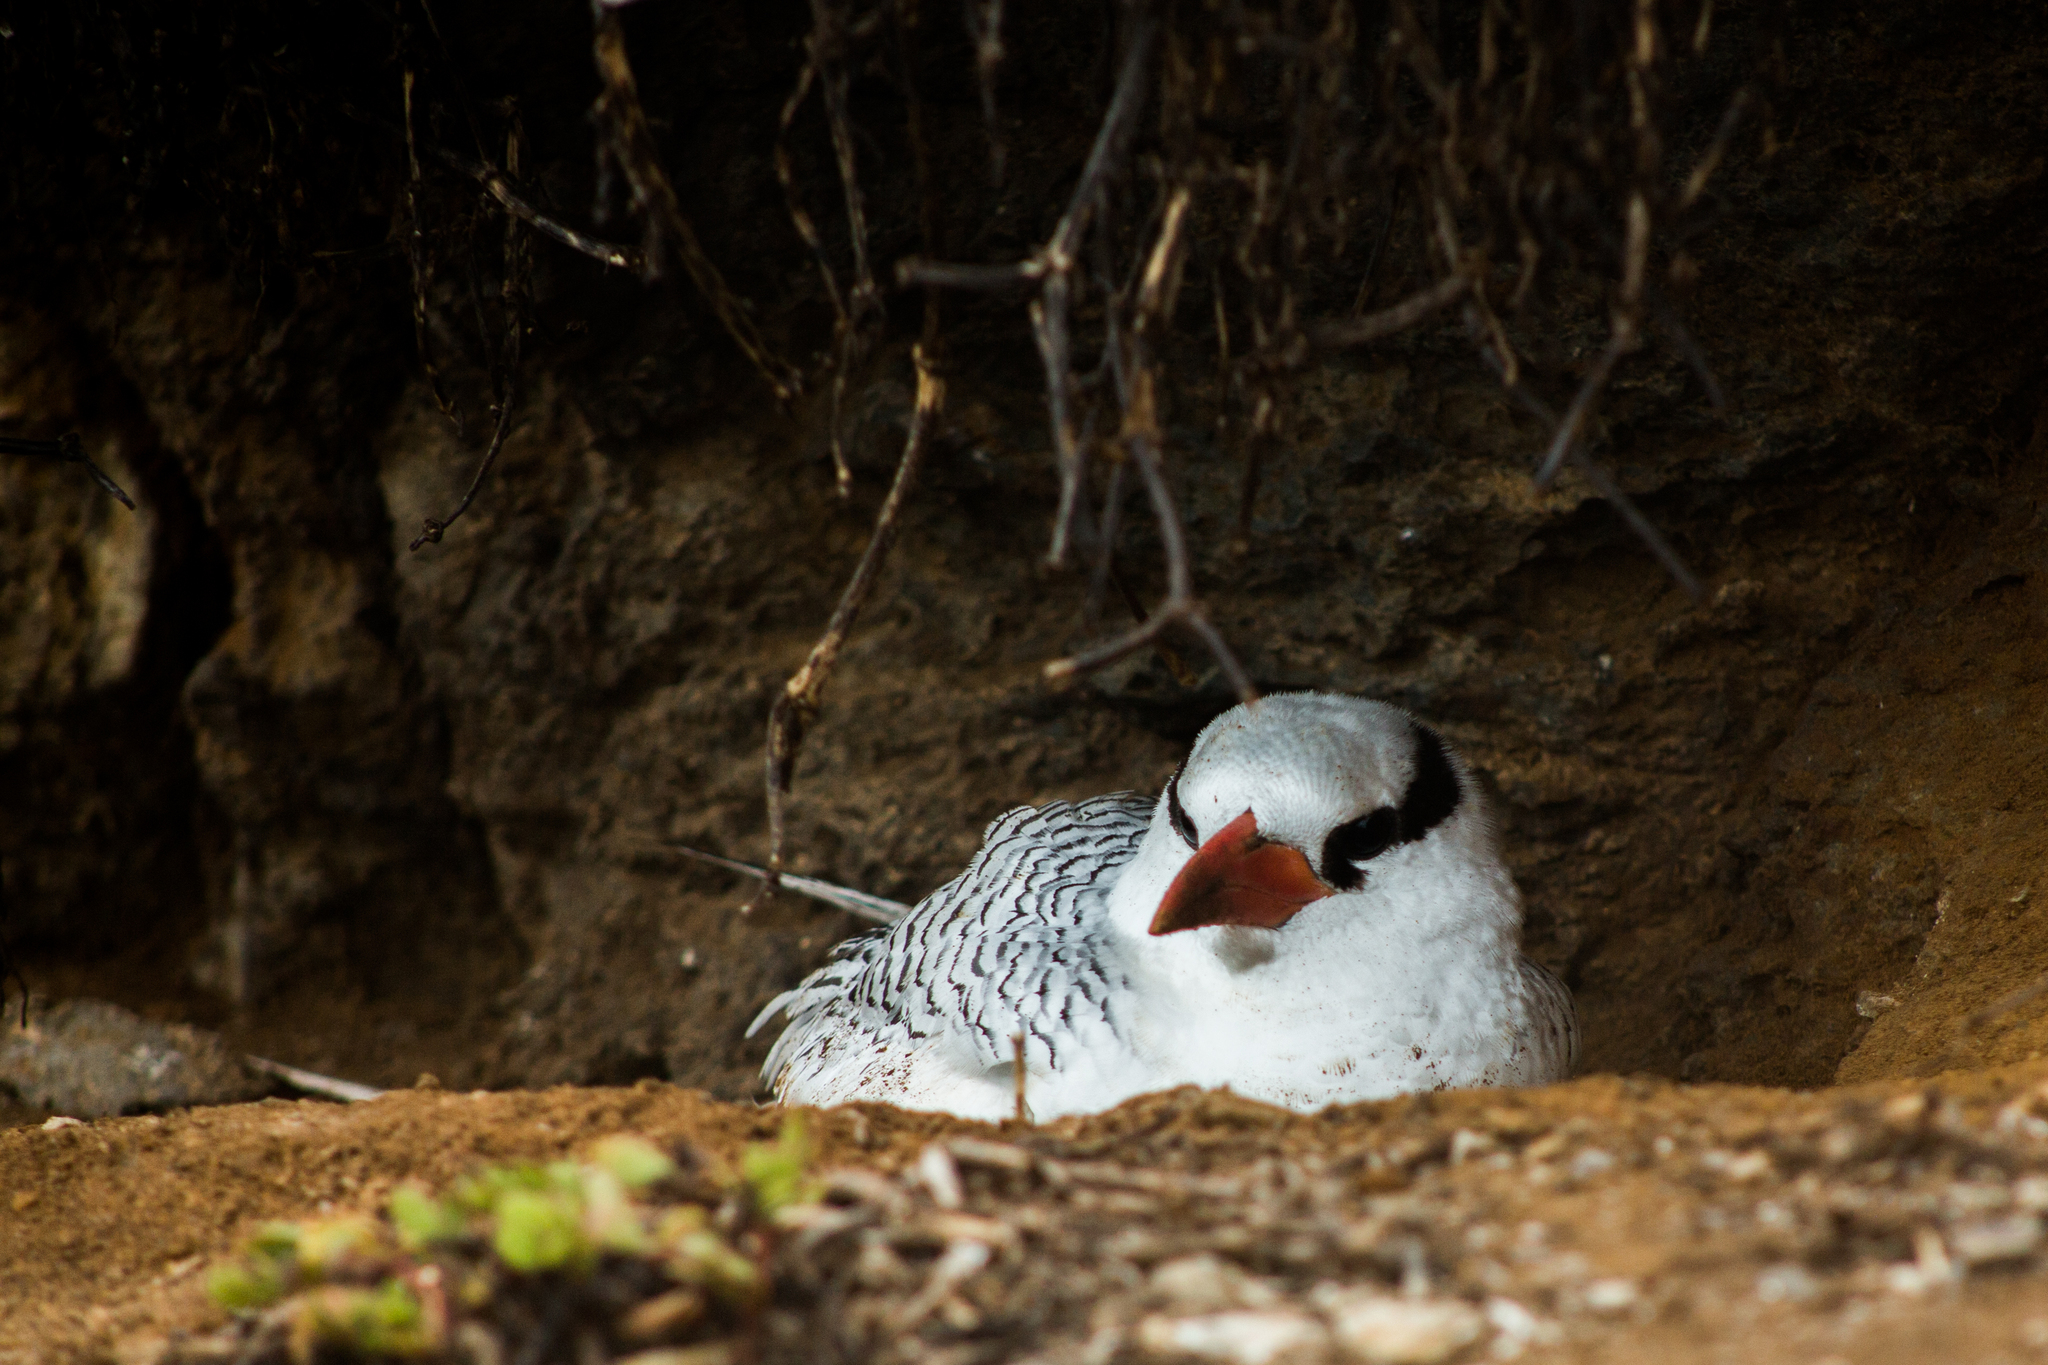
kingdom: Animalia
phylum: Chordata
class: Aves
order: Phaethontiformes
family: Phaethontidae
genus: Phaethon
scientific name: Phaethon aethereus
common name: Red-billed tropicbird
